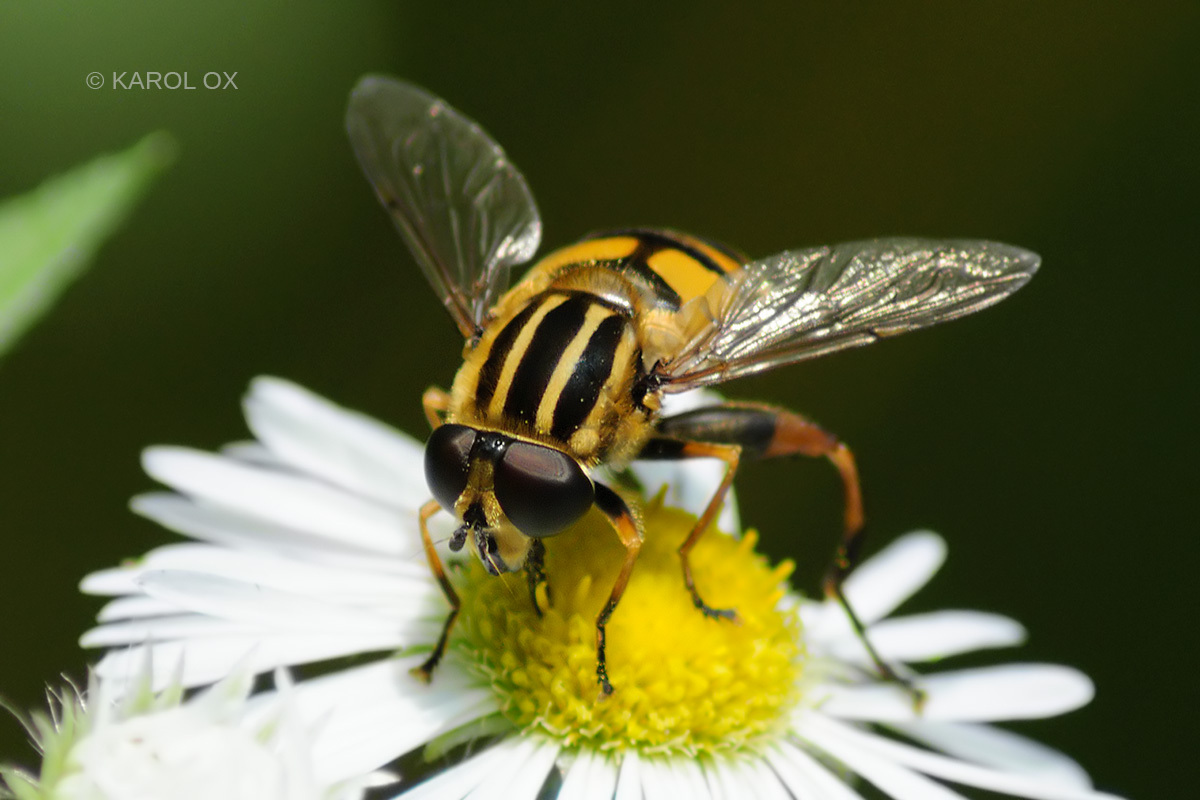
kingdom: Animalia
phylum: Arthropoda
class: Insecta
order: Diptera
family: Syrphidae
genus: Helophilus
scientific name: Helophilus pendulus
